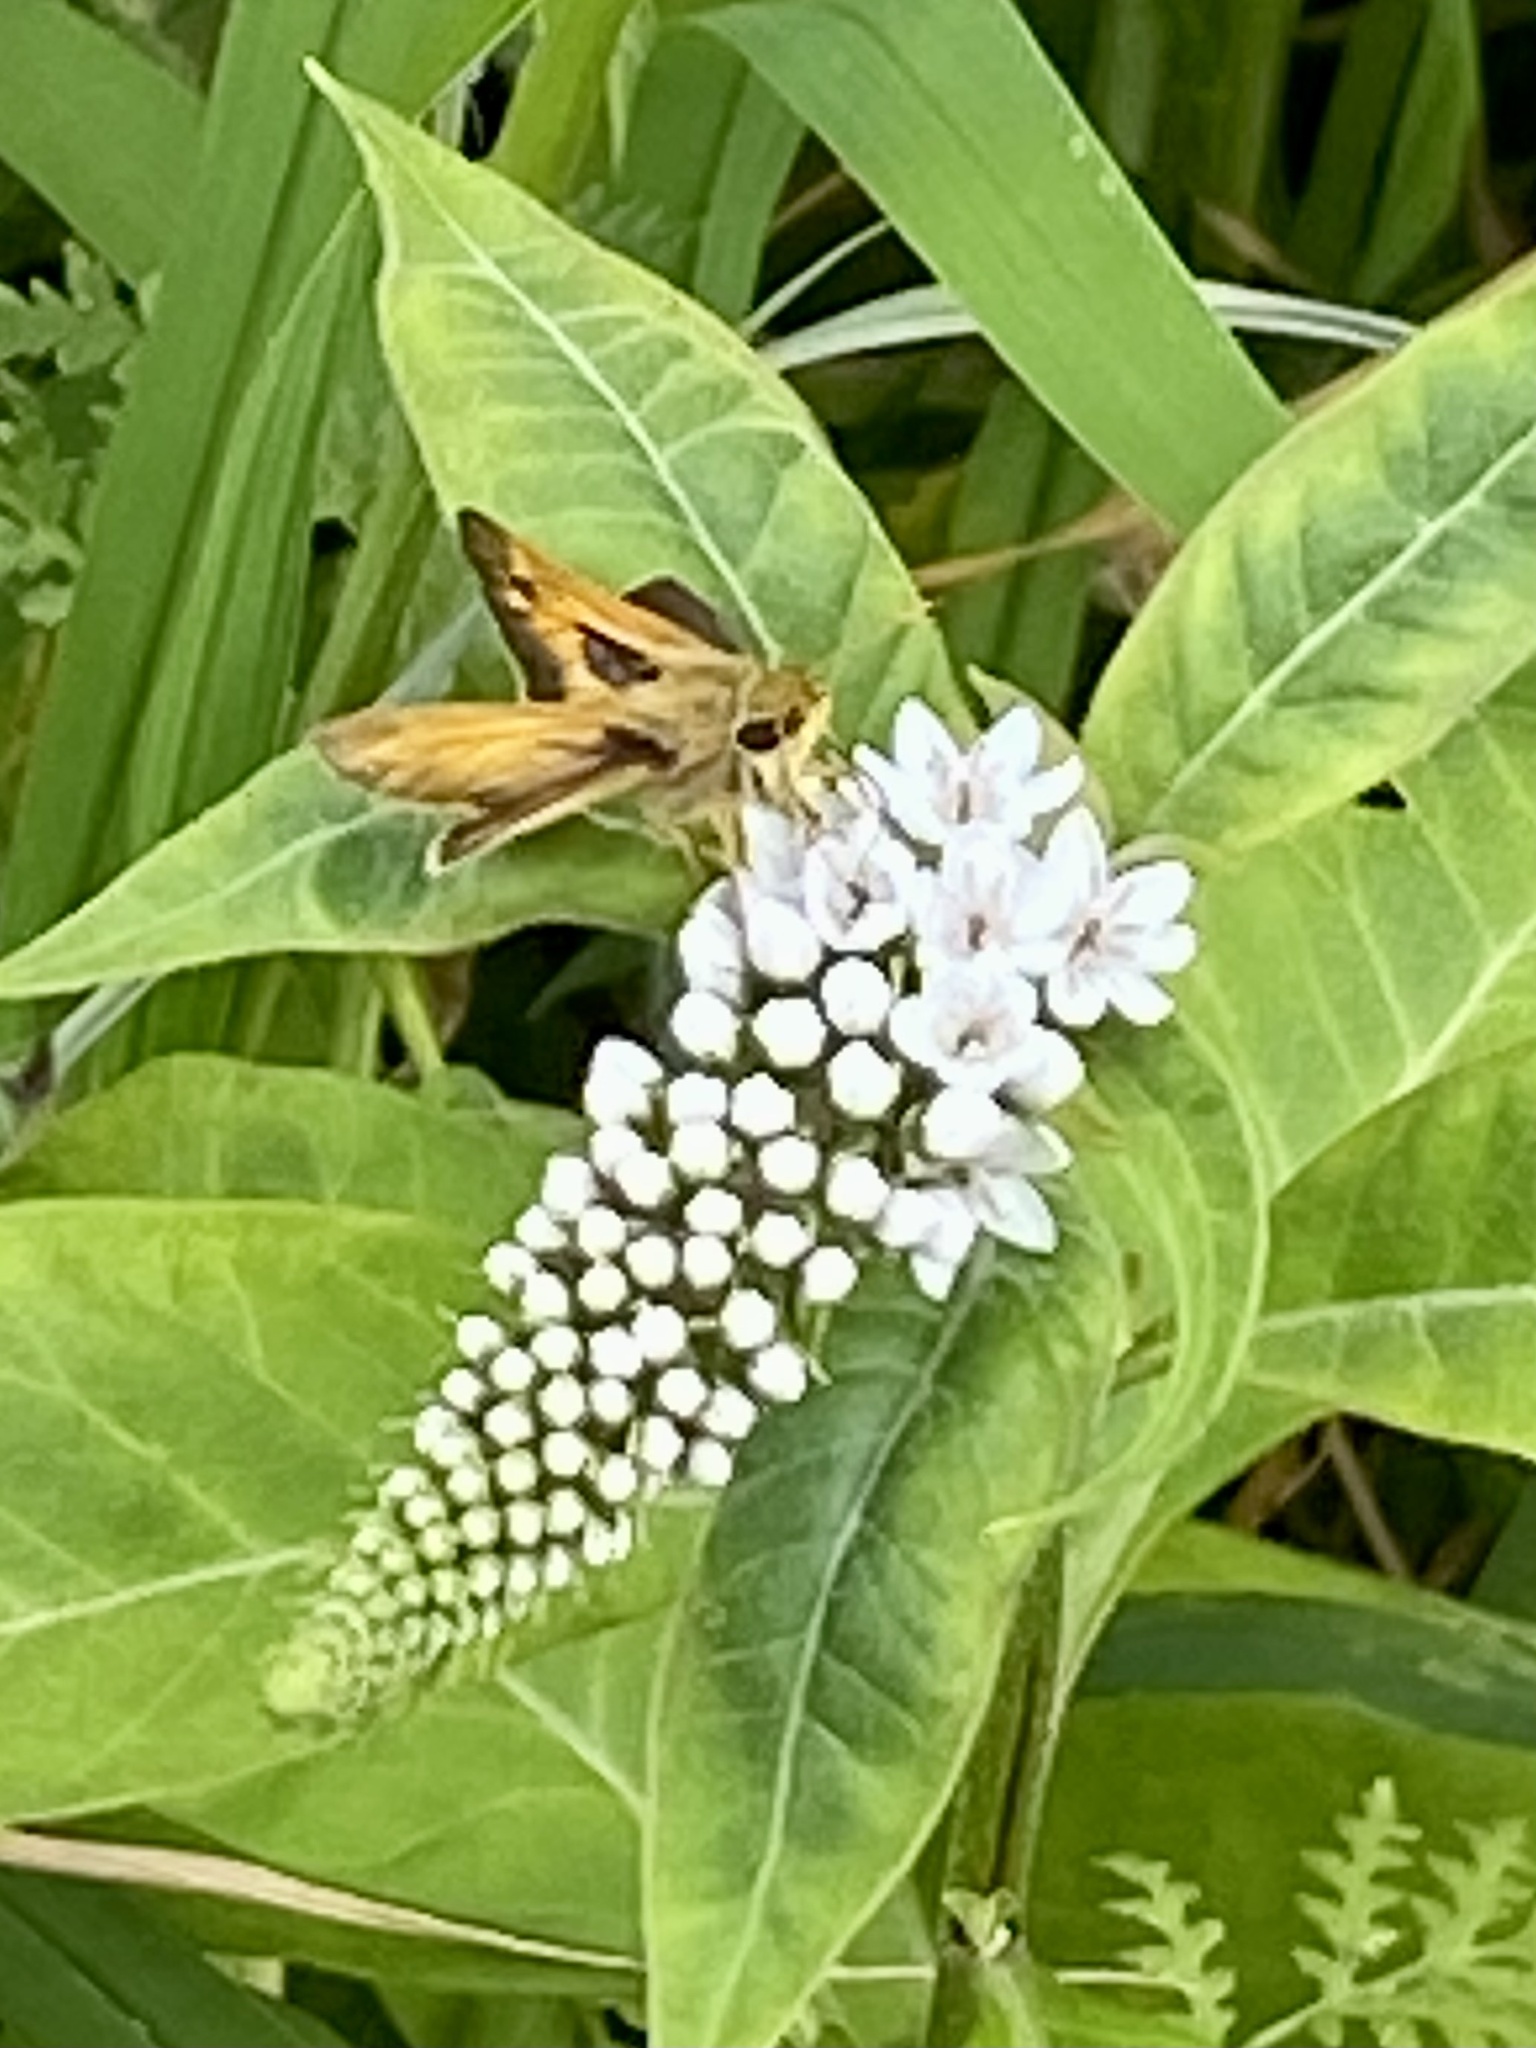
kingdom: Animalia
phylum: Arthropoda
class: Insecta
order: Lepidoptera
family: Hesperiidae
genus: Atalopedes
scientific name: Atalopedes
